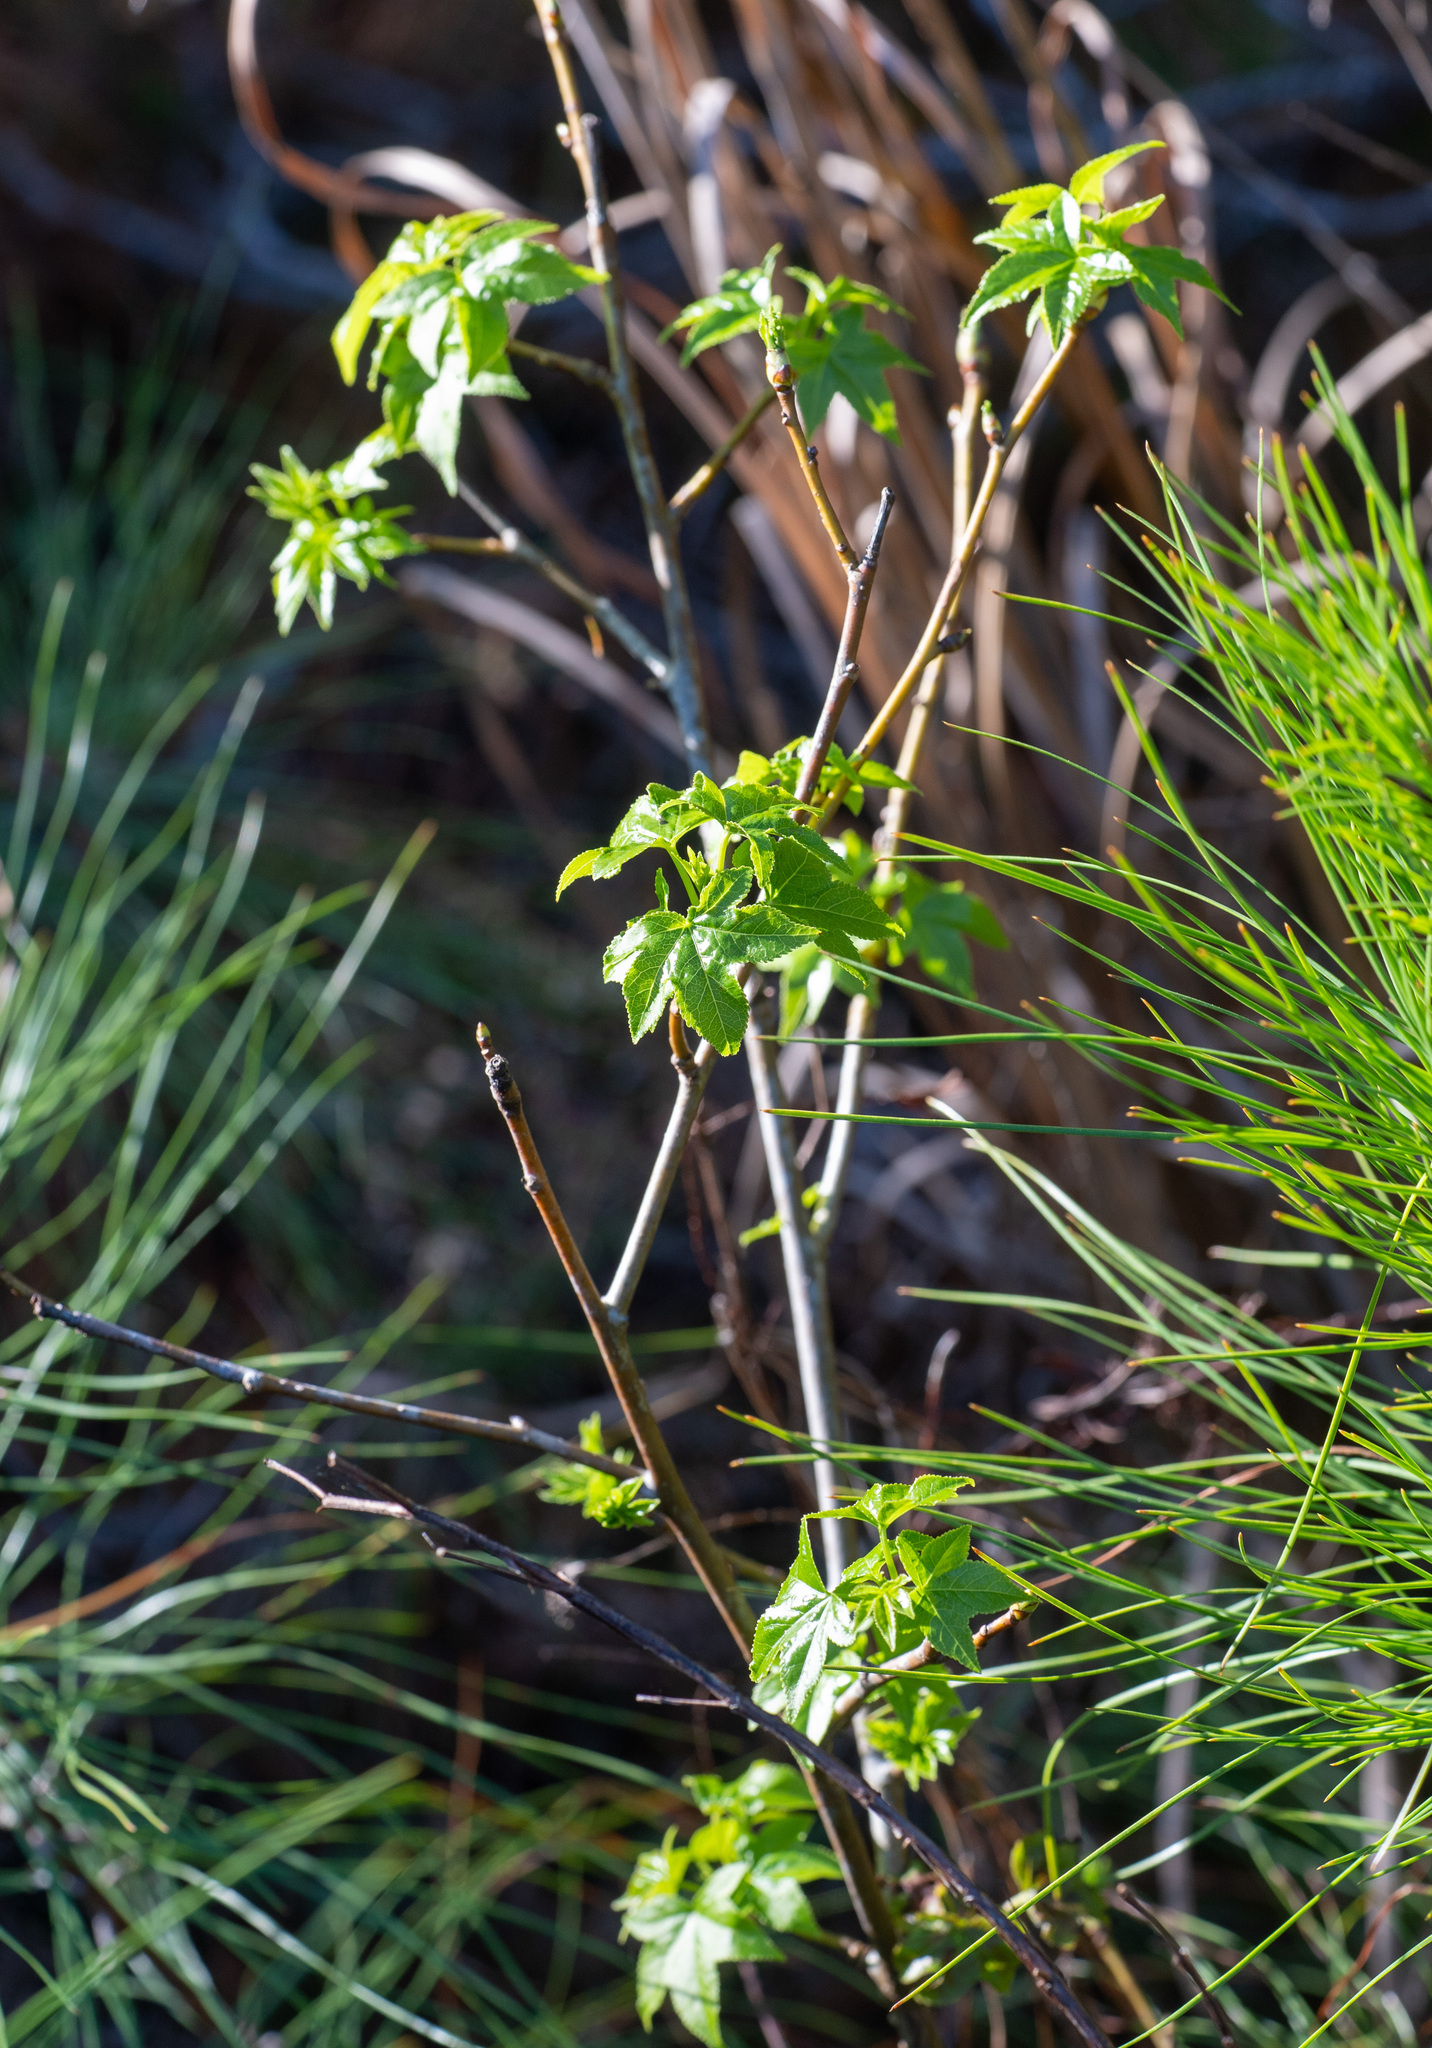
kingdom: Plantae
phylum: Tracheophyta
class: Magnoliopsida
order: Saxifragales
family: Altingiaceae
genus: Liquidambar
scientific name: Liquidambar styraciflua
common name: Sweet gum
